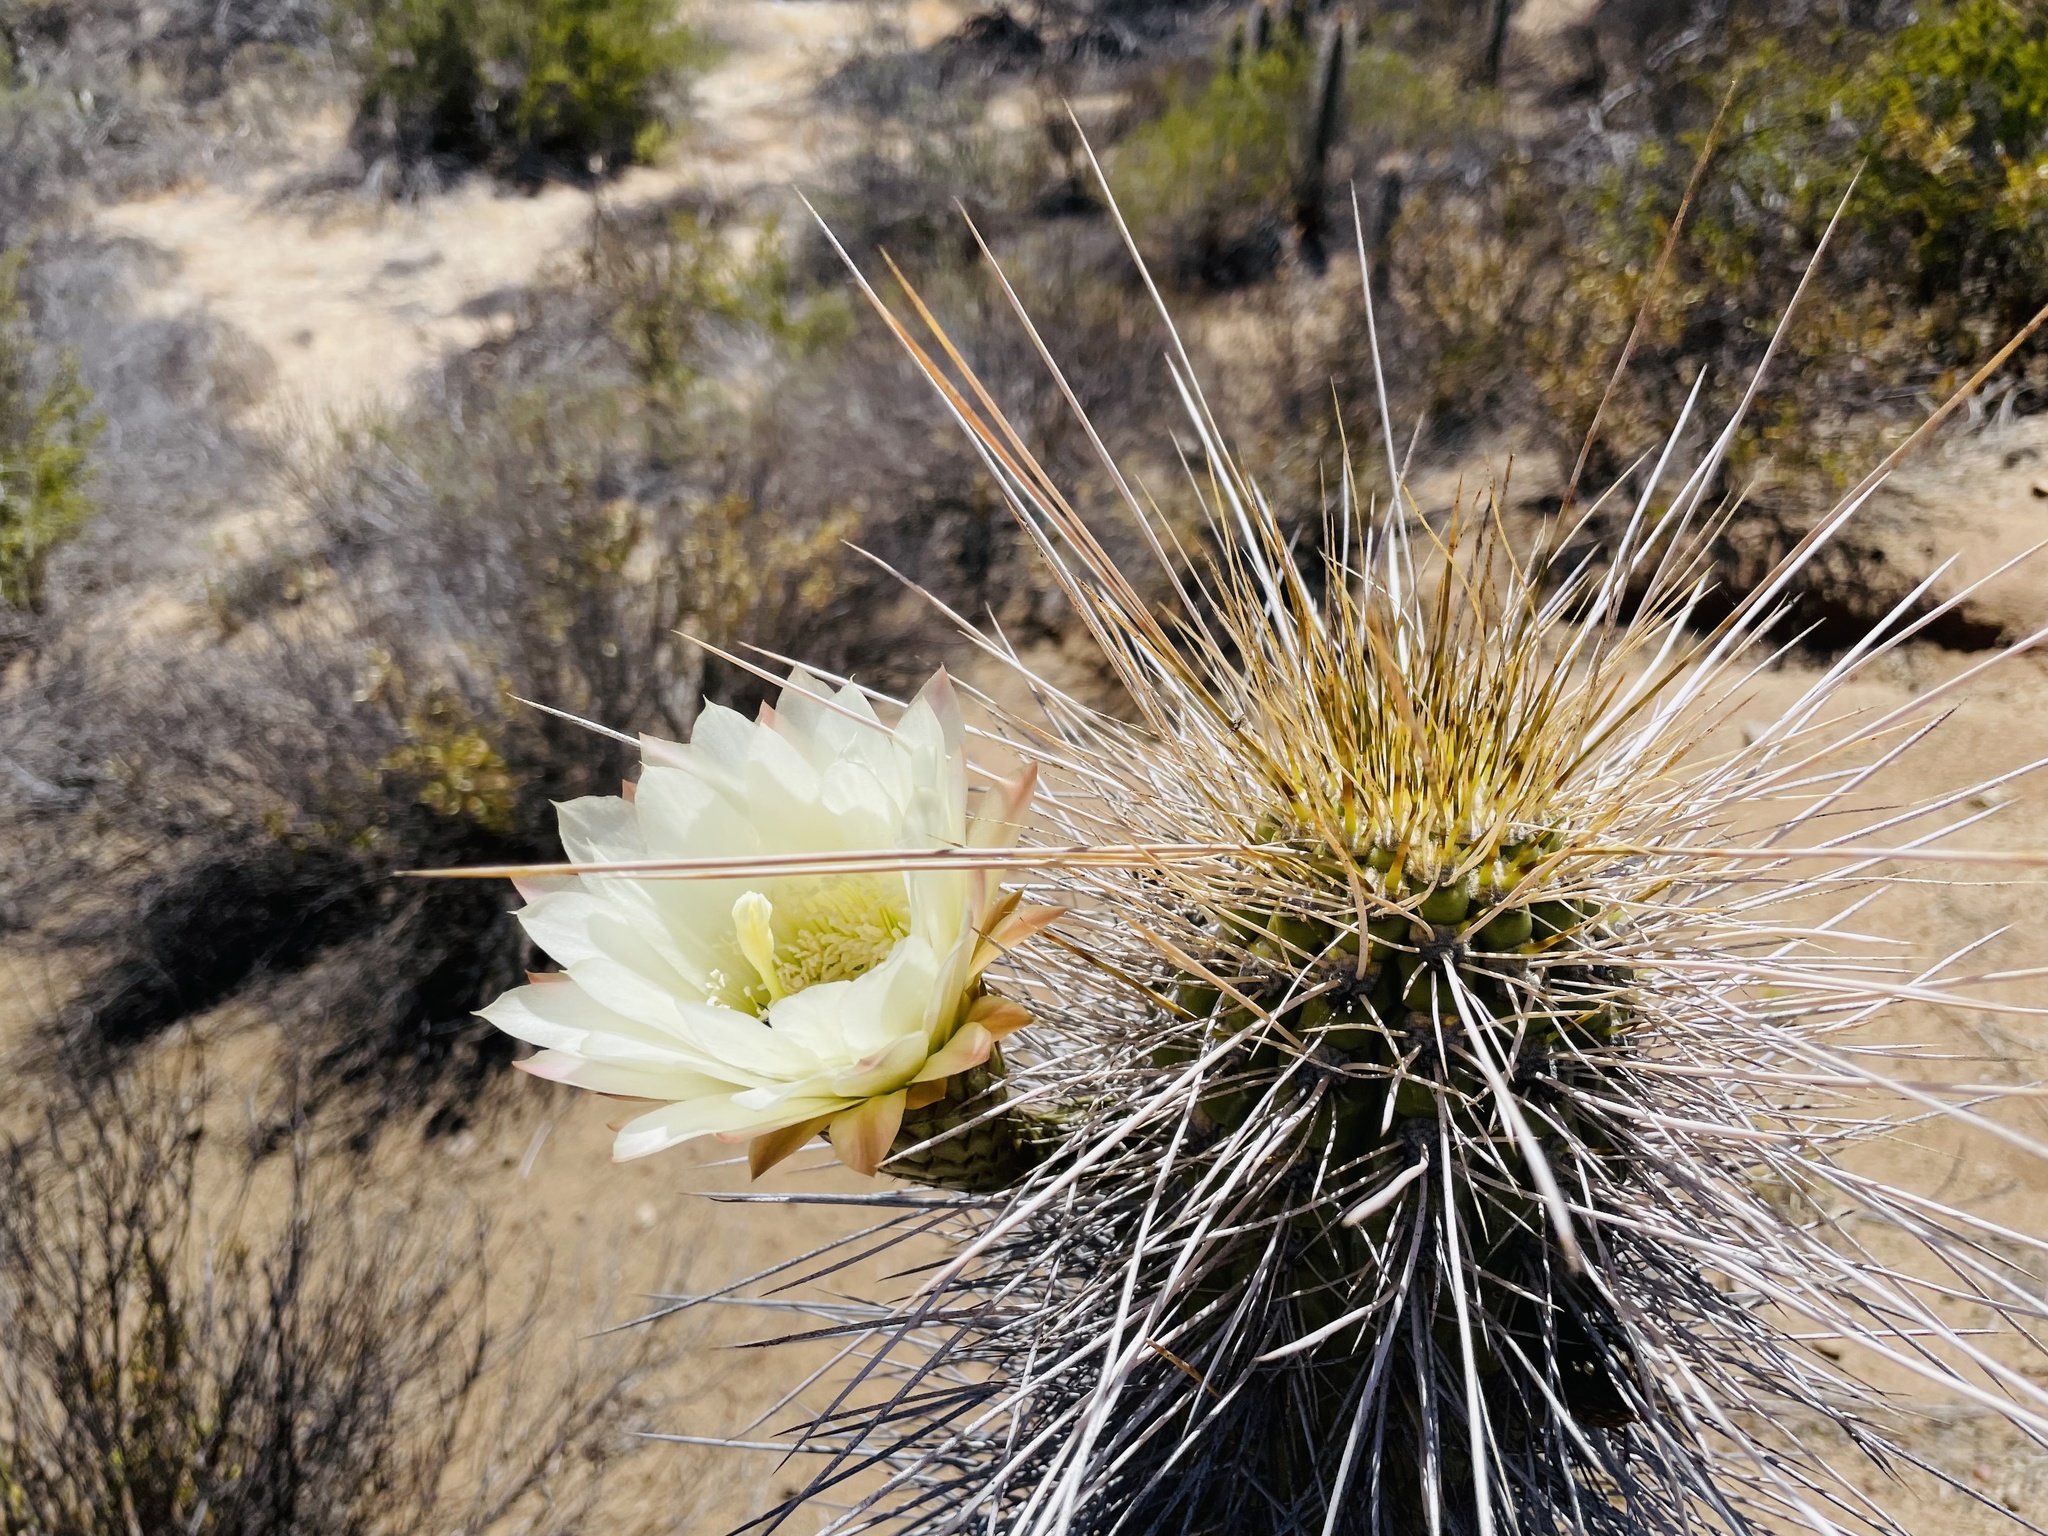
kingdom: Plantae
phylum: Tracheophyta
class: Magnoliopsida
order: Caryophyllales
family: Cactaceae
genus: Leucostele
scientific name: Leucostele chiloensis
